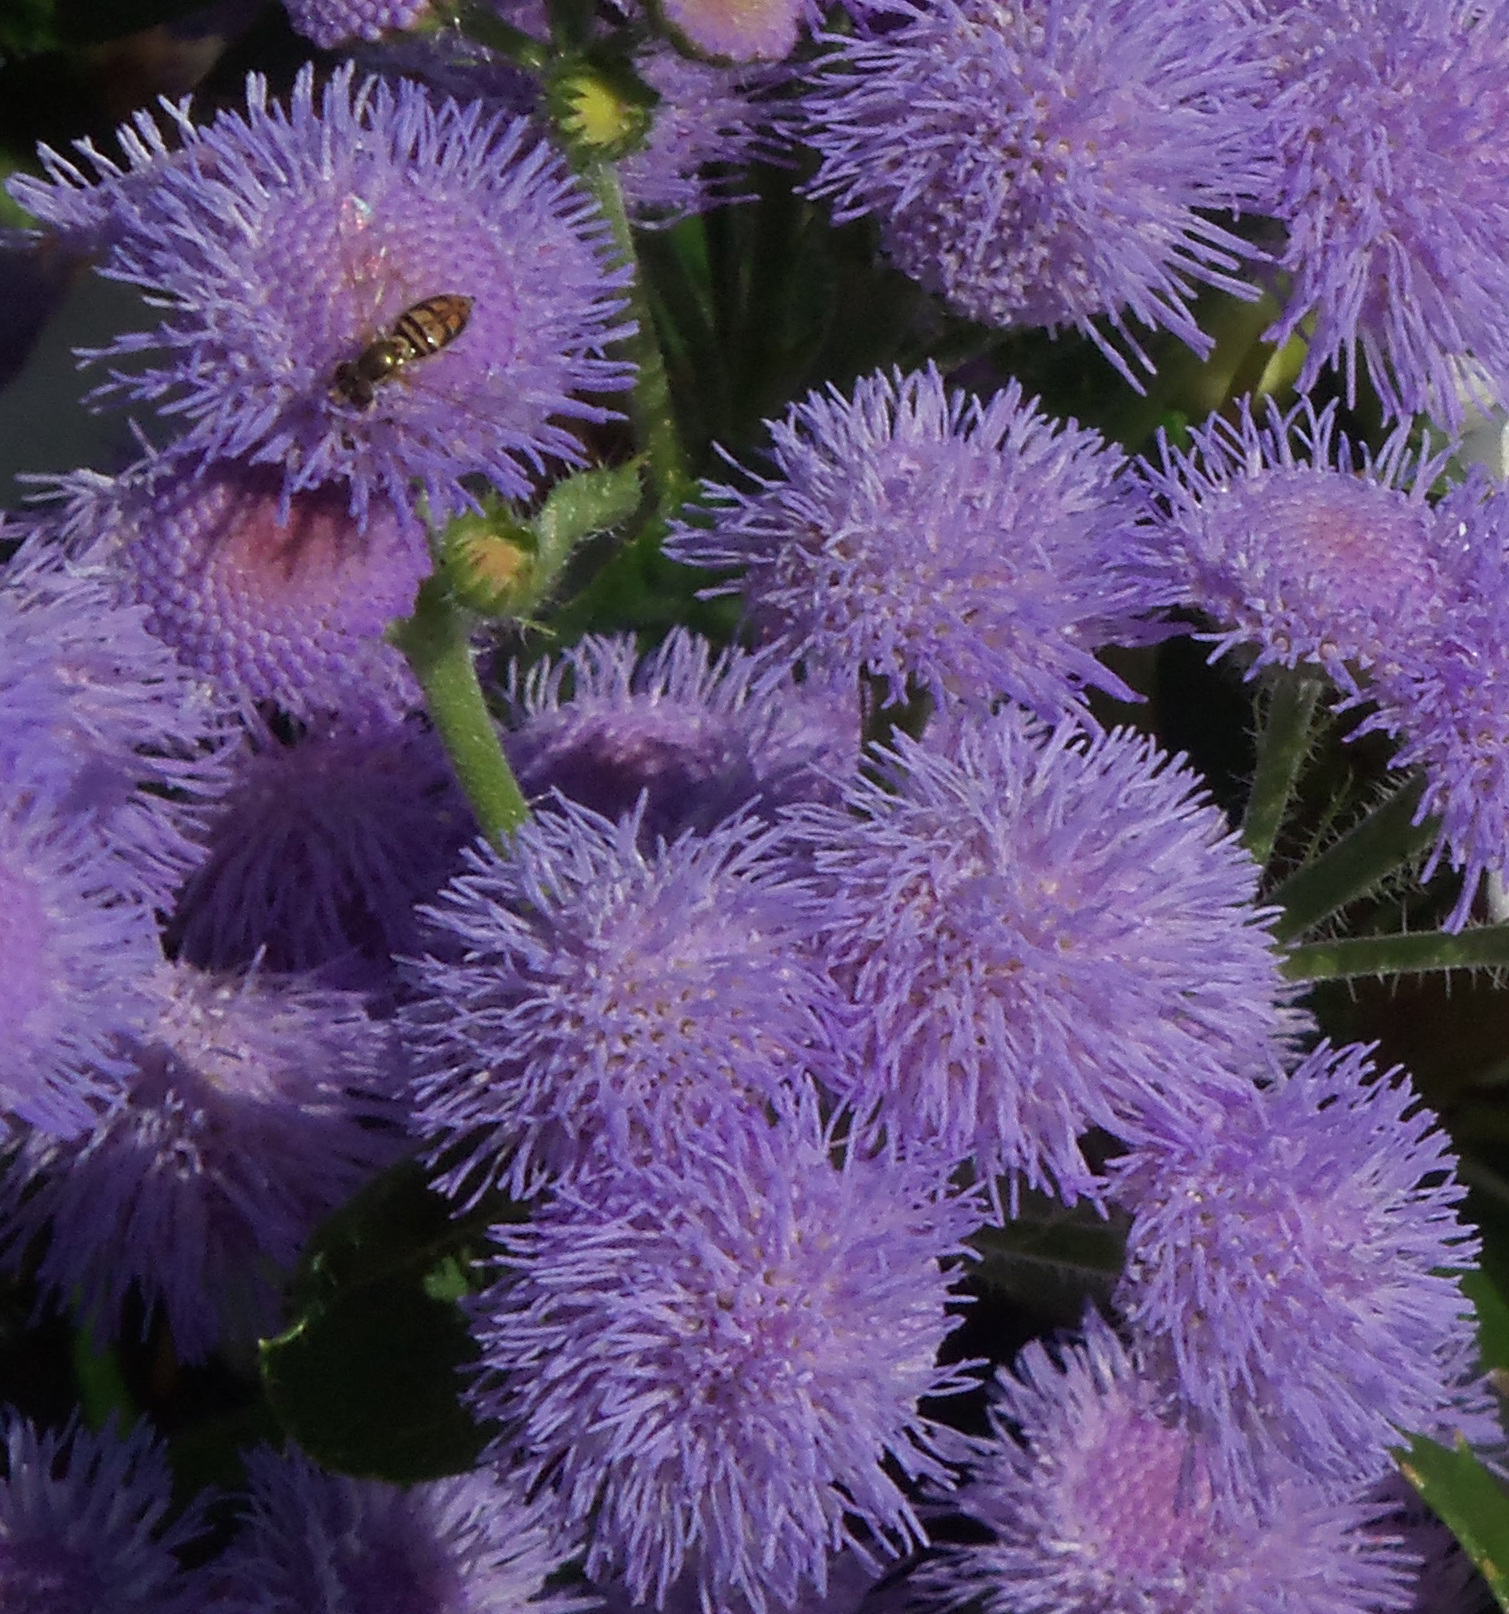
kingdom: Animalia
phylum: Arthropoda
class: Insecta
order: Diptera
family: Syrphidae
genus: Toxomerus
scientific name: Toxomerus marginatus
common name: Syrphid fly
